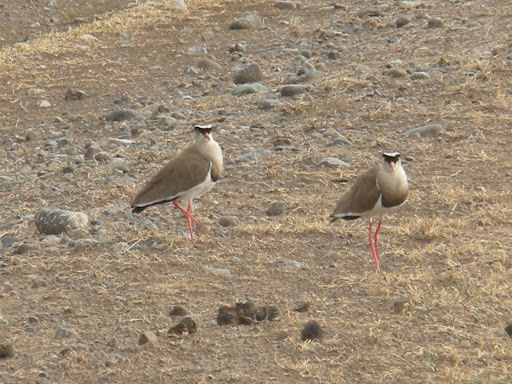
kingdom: Animalia
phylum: Chordata
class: Aves
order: Charadriiformes
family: Charadriidae
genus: Vanellus
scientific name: Vanellus coronatus
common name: Crowned lapwing
